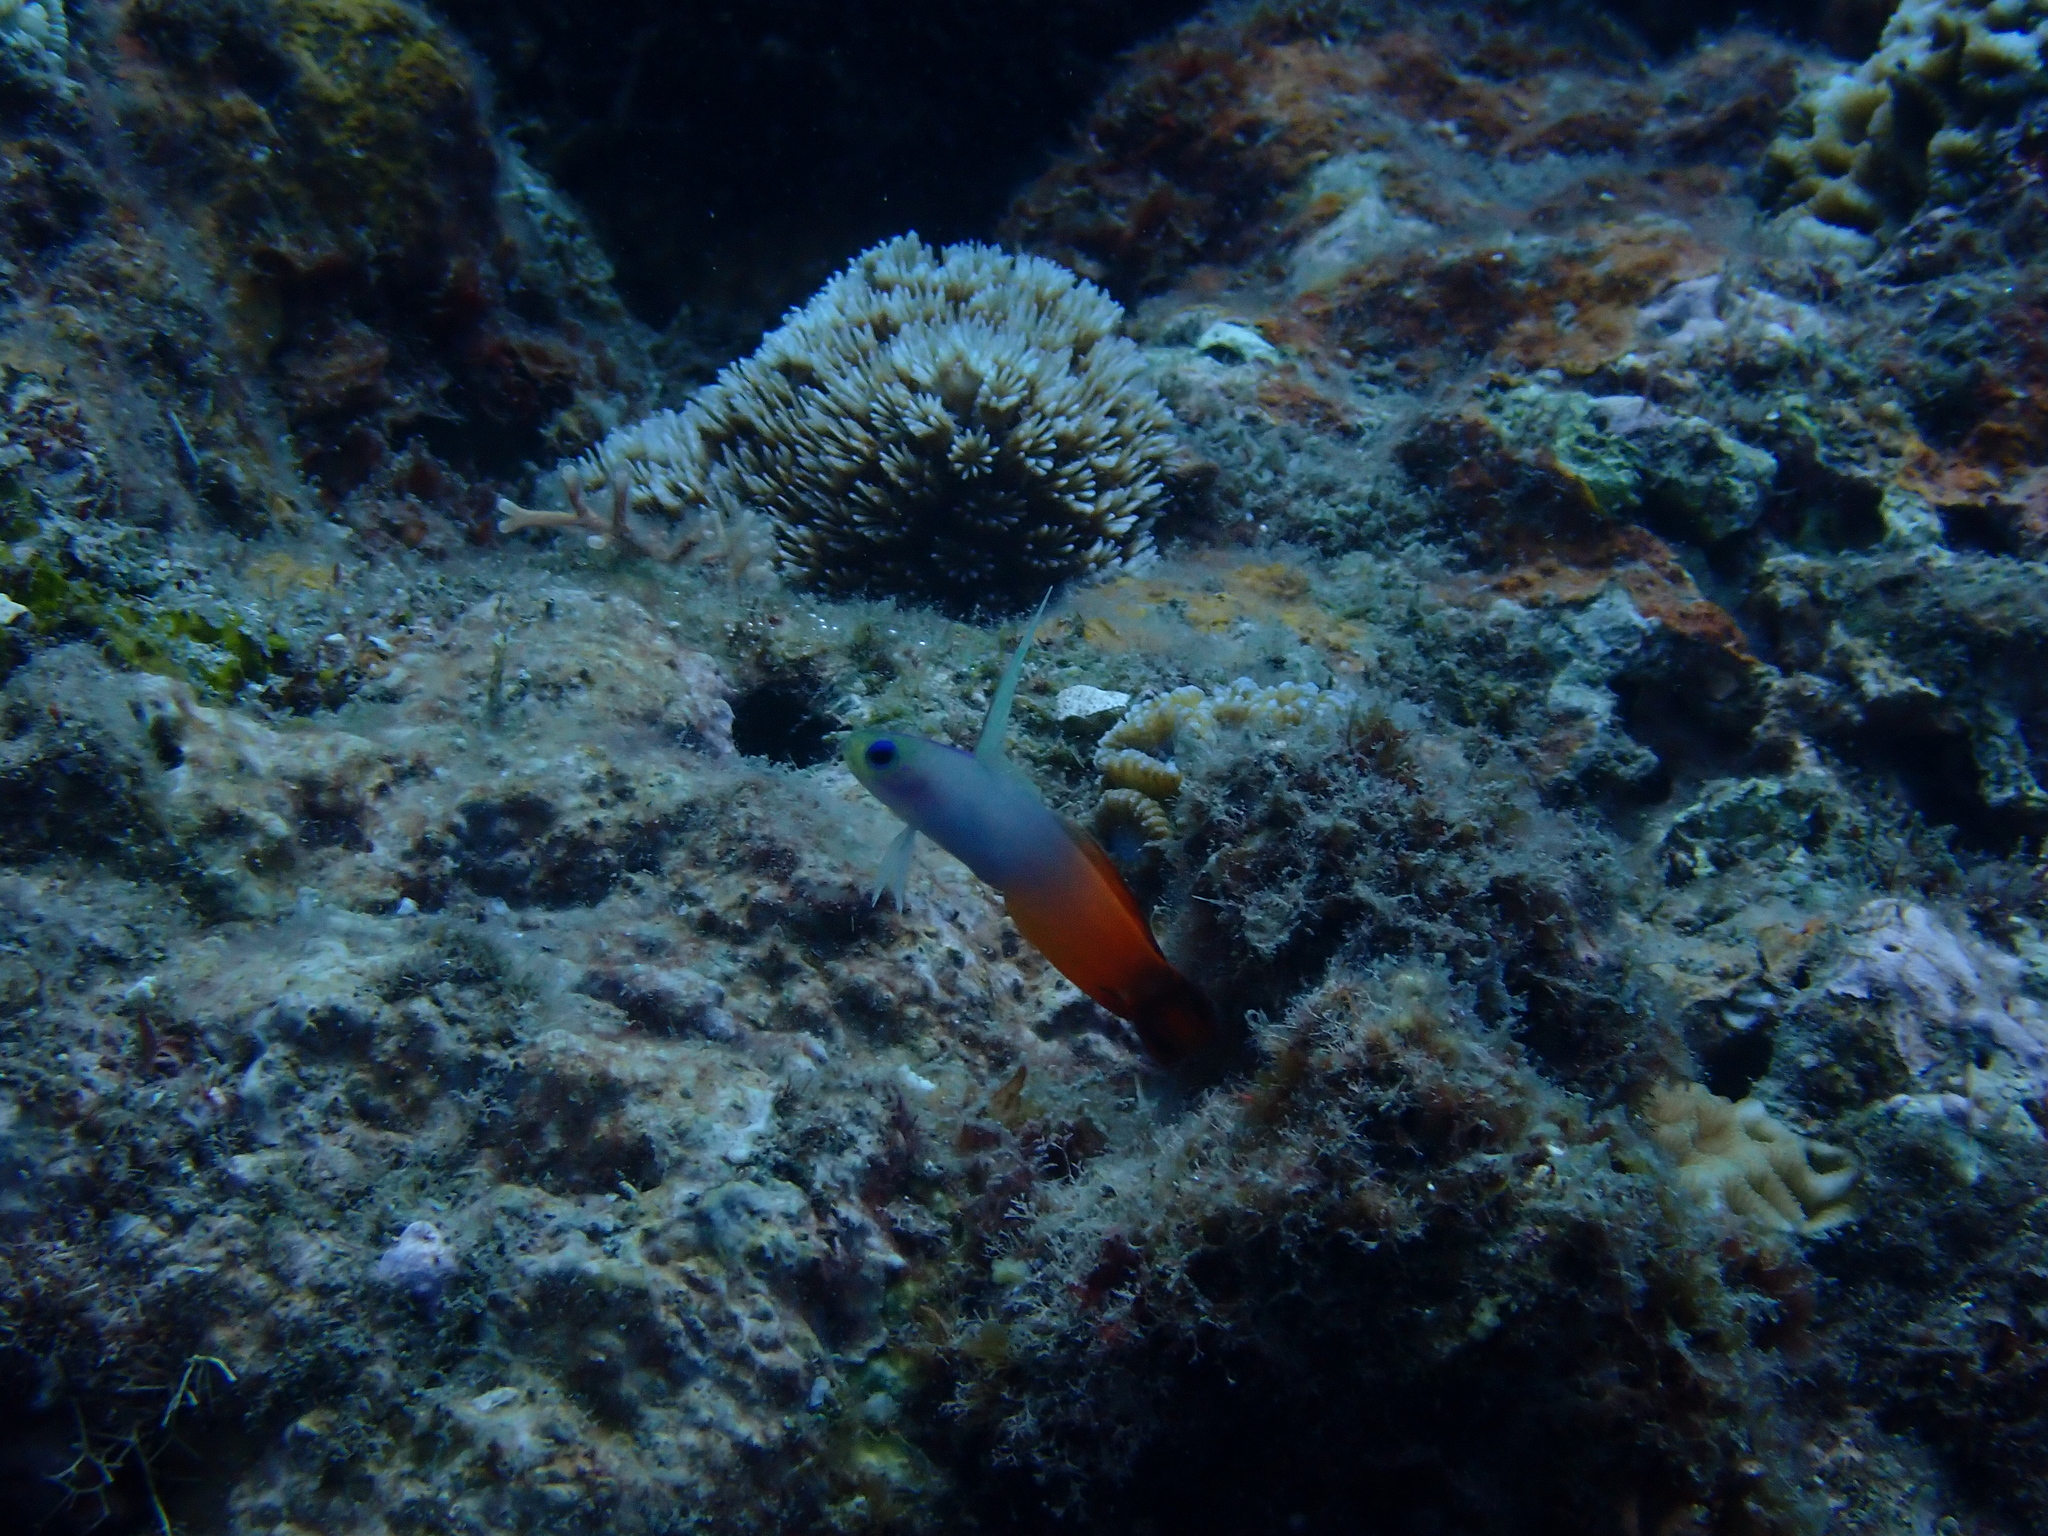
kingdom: Animalia
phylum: Chordata
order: Perciformes
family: Microdesmidae
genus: Nemateleotris
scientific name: Nemateleotris magnifica
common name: Fire goby
